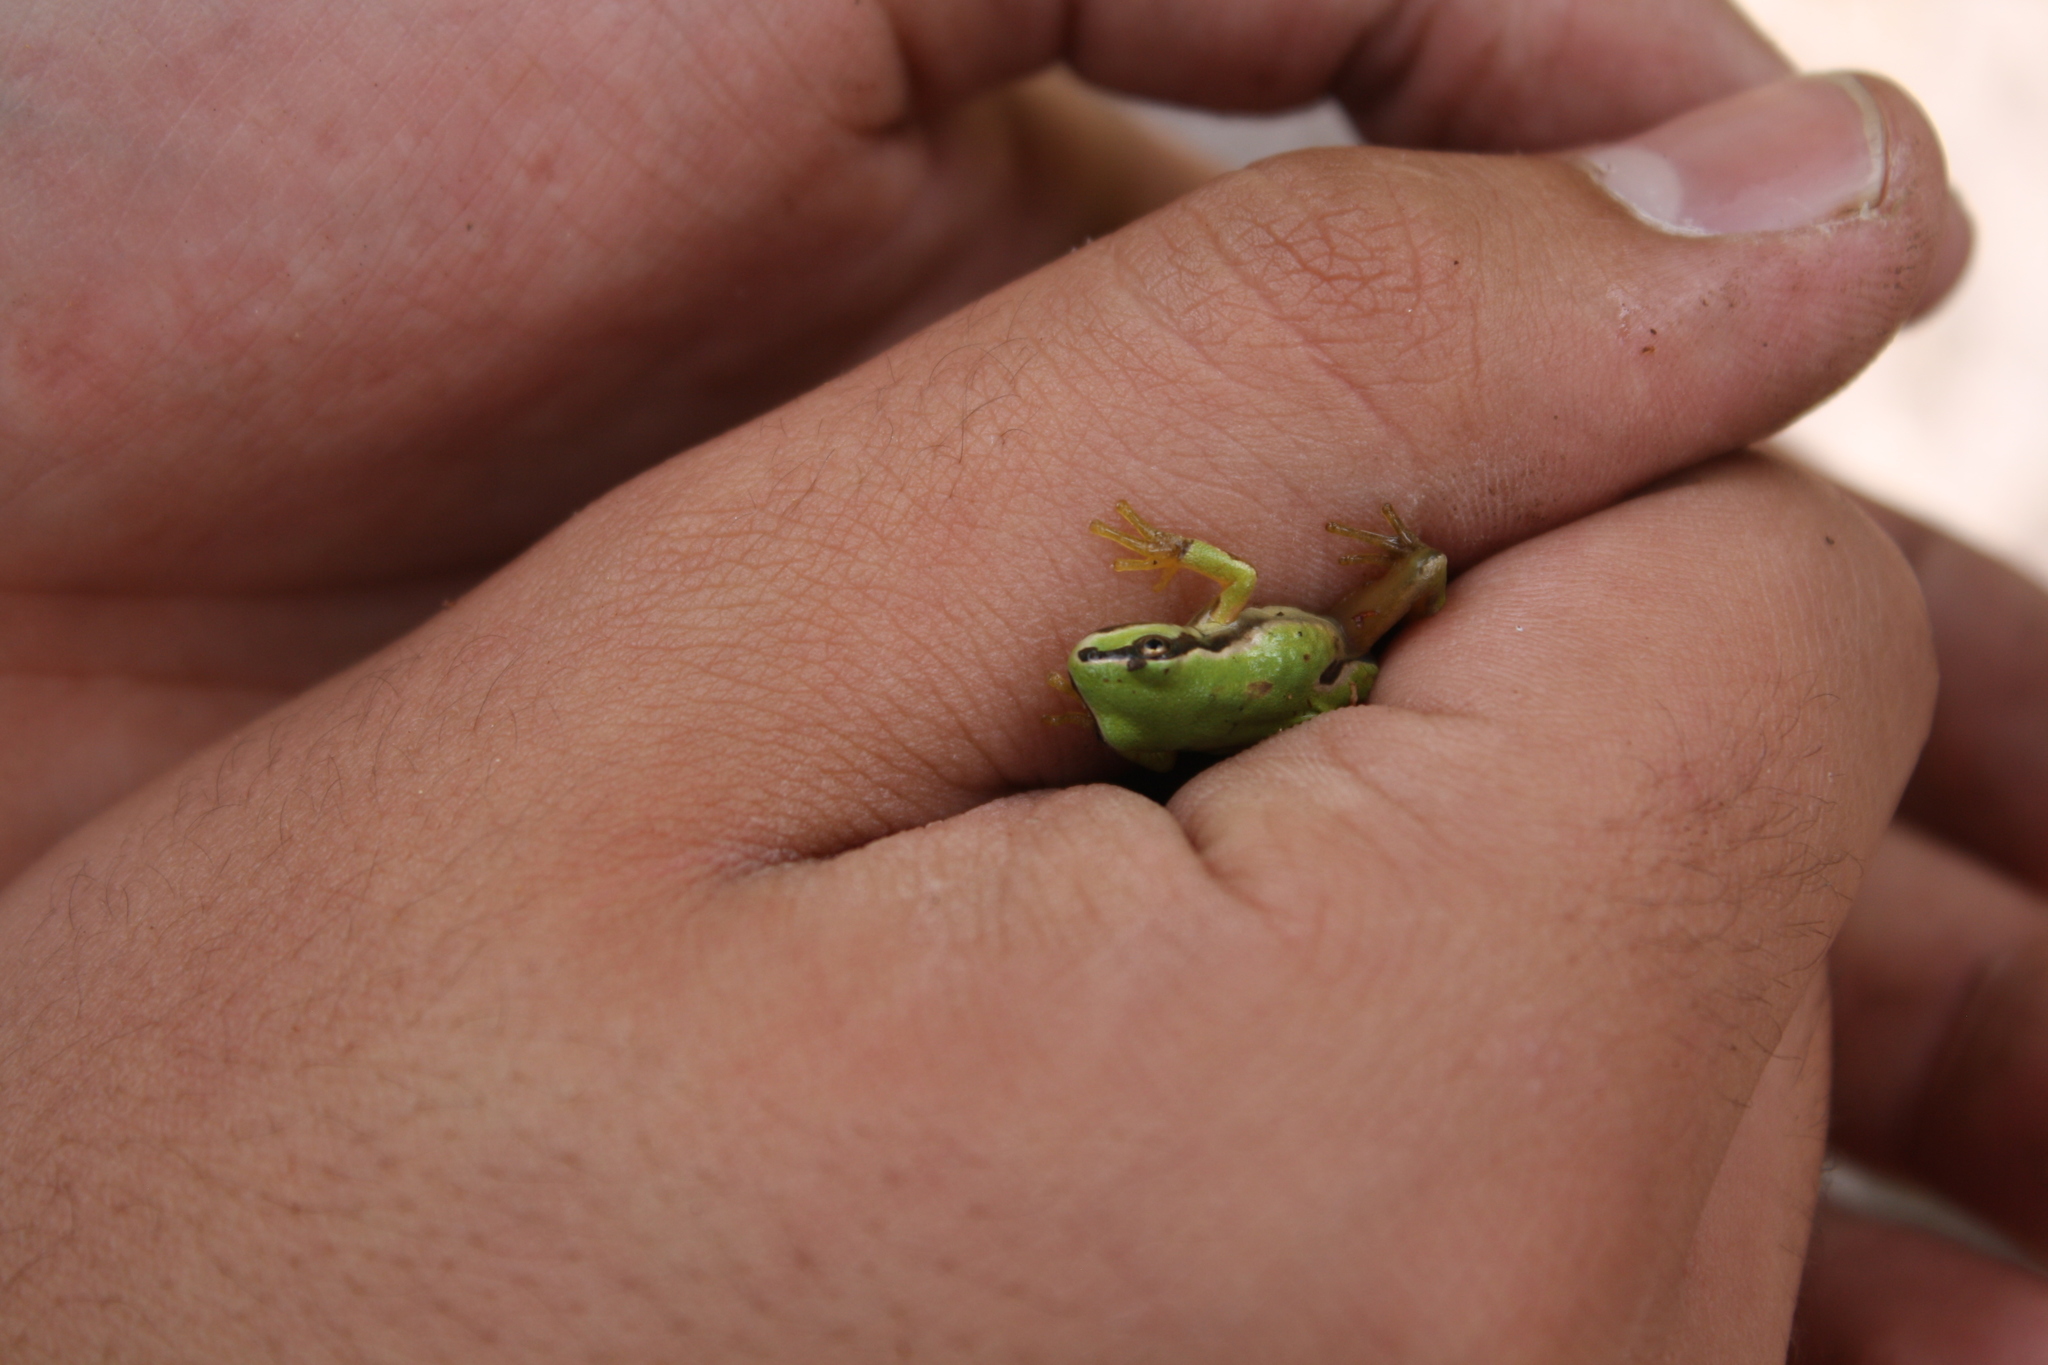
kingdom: Animalia
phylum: Chordata
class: Amphibia
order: Anura
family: Hylidae
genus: Dryophytes
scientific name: Dryophytes eximius
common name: Mountain treefrog
